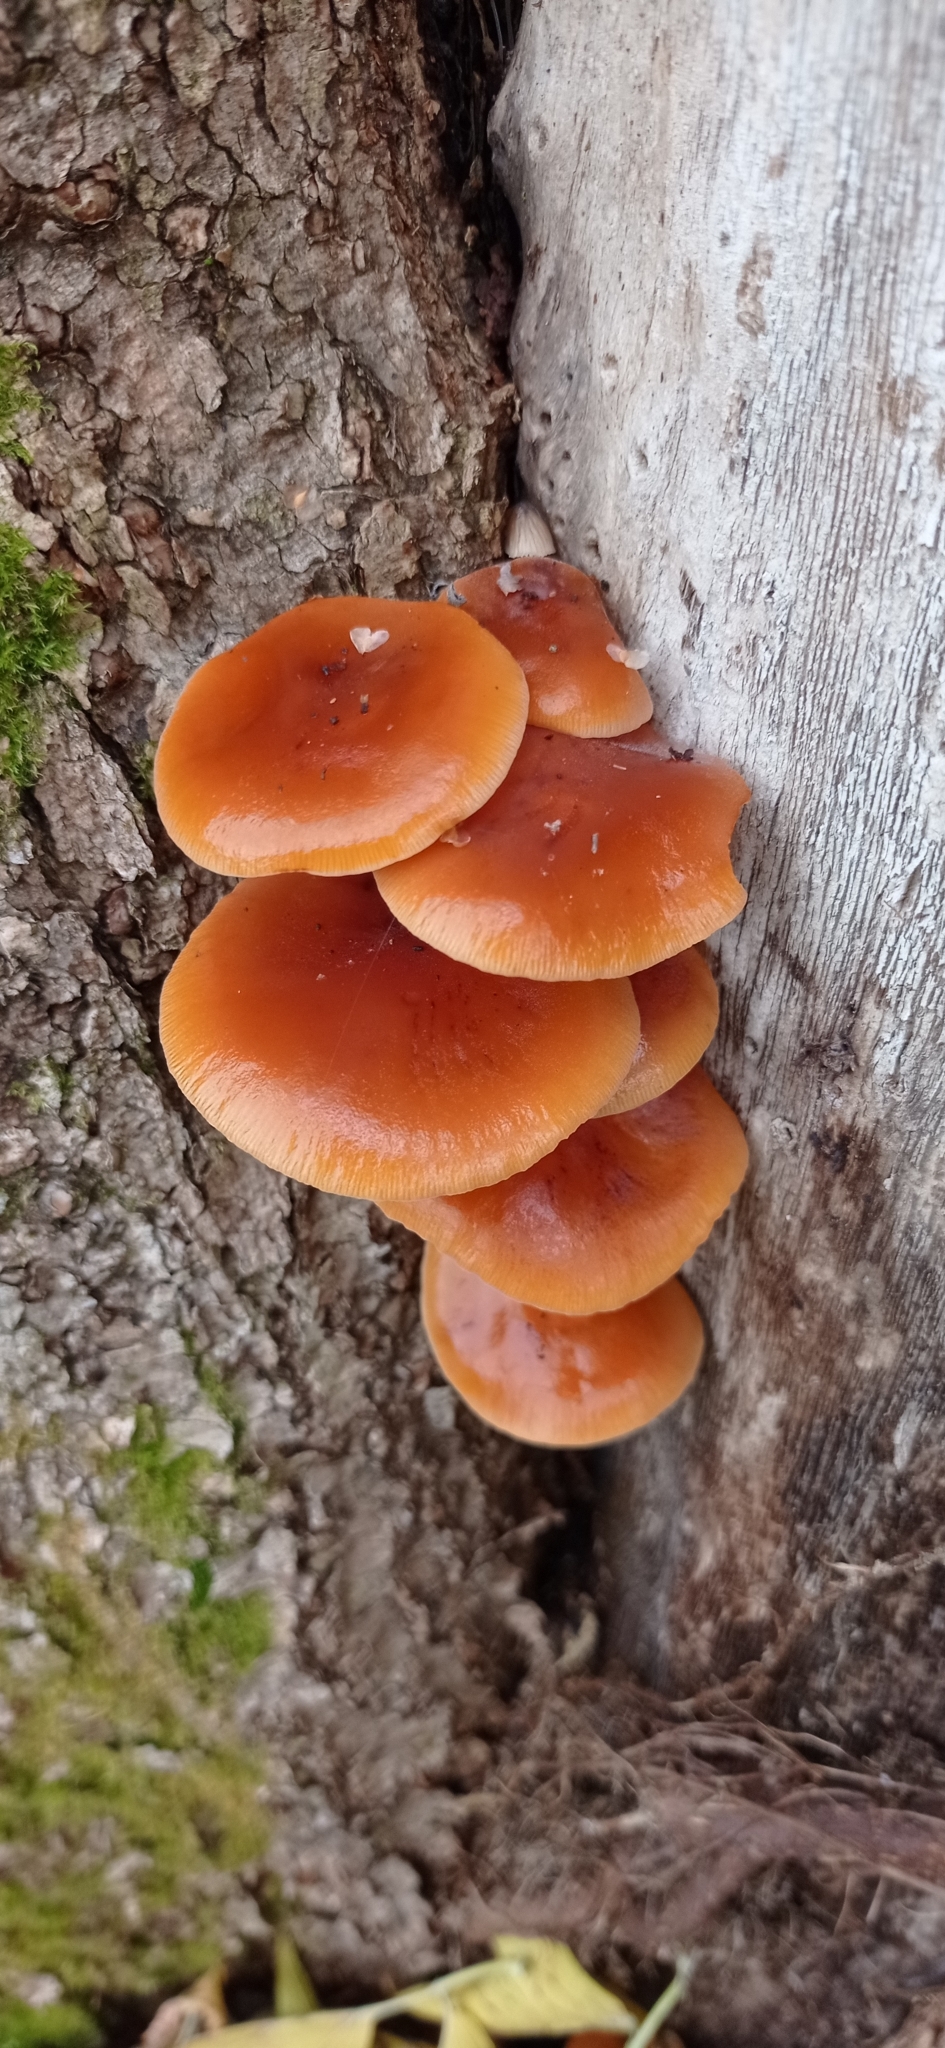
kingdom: Fungi
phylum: Basidiomycota
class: Agaricomycetes
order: Agaricales
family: Physalacriaceae
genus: Flammulina
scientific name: Flammulina
